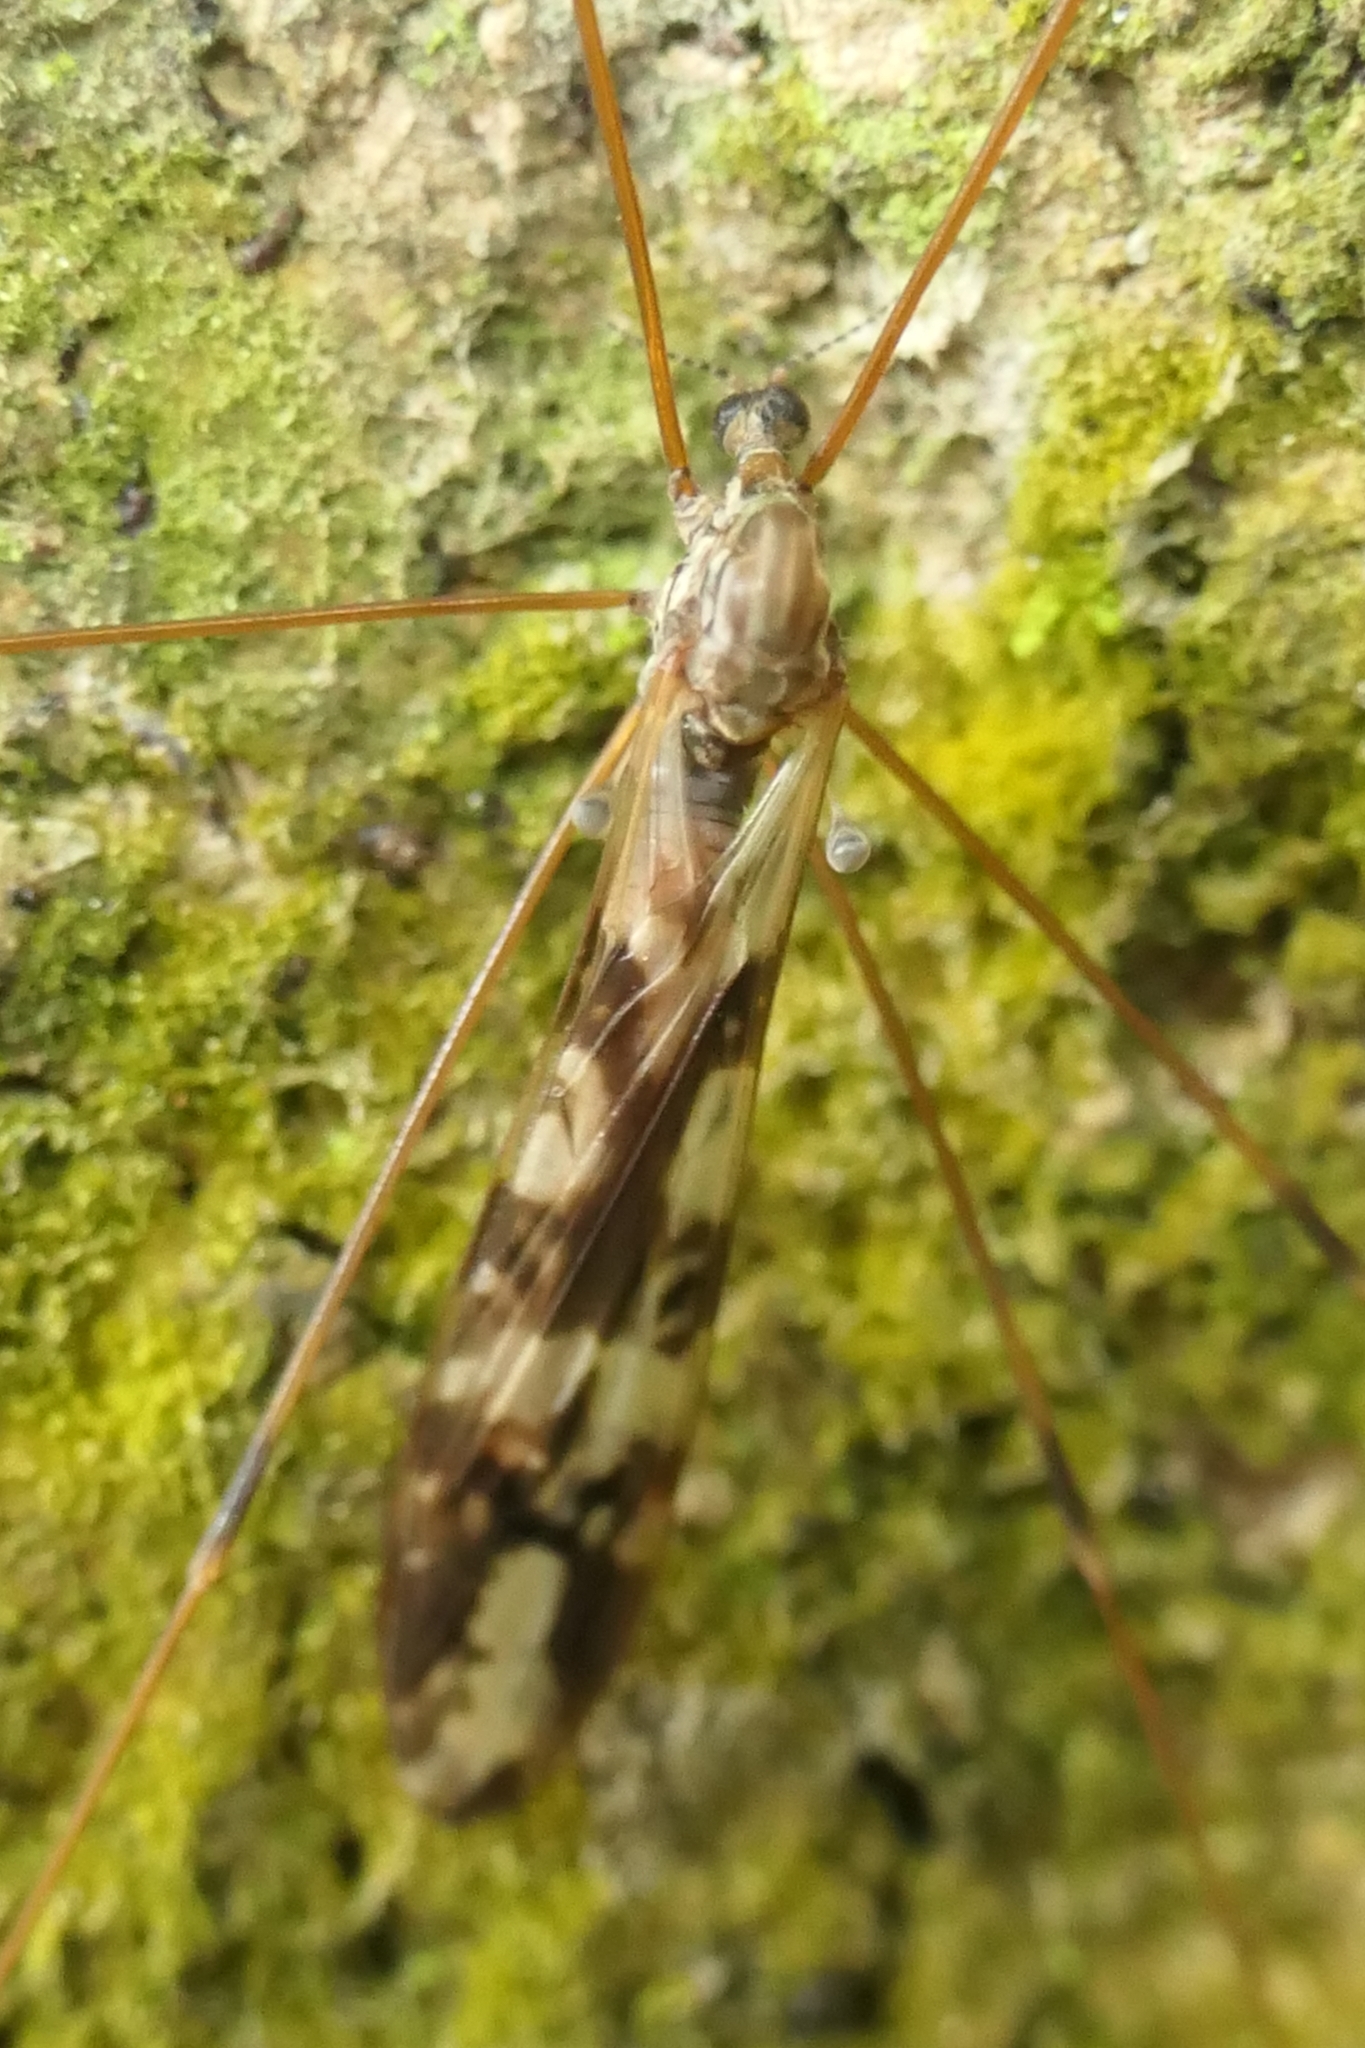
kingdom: Animalia
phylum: Arthropoda
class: Insecta
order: Diptera
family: Limoniidae
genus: Discobola
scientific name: Discobola dohrni
